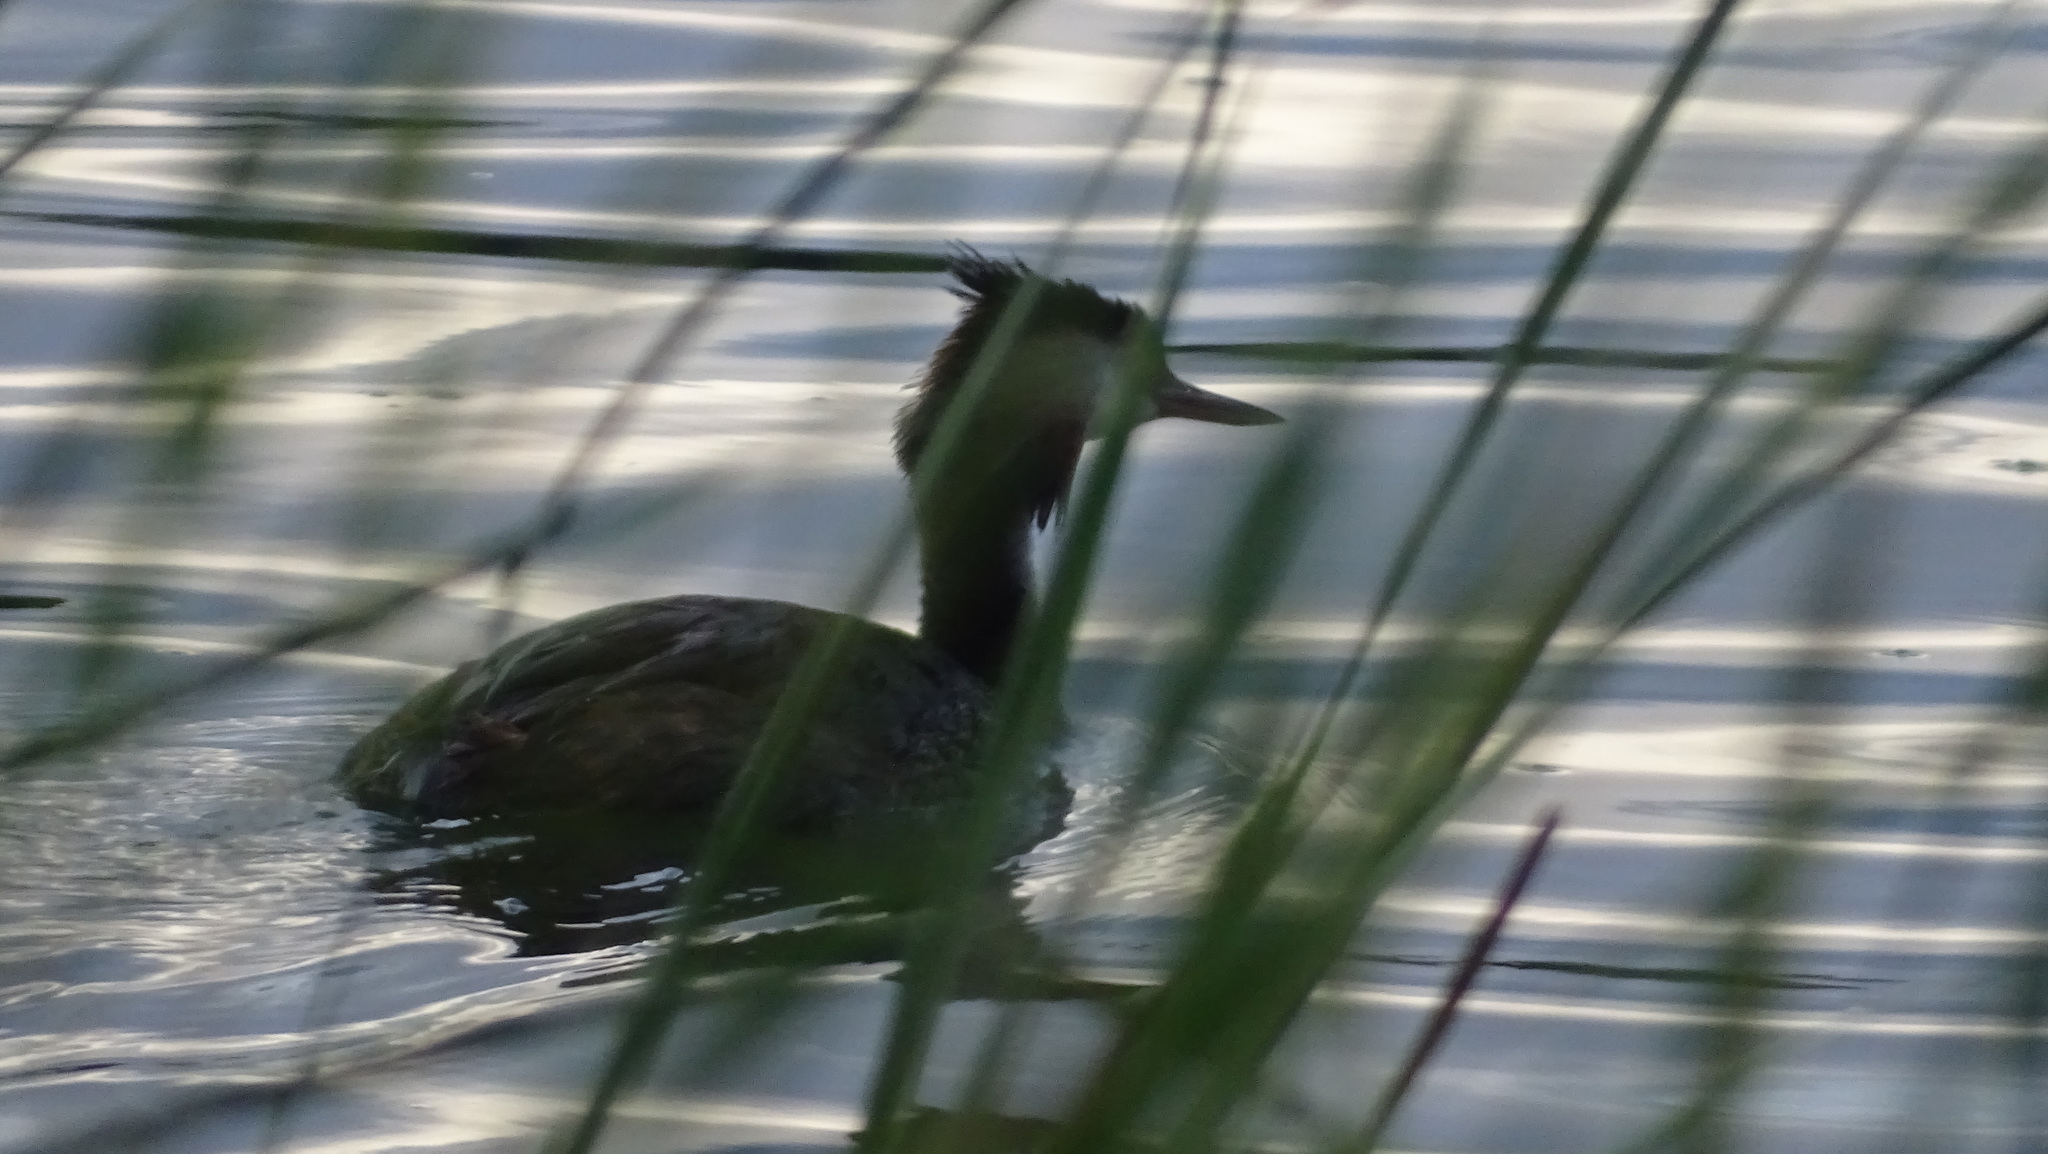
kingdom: Animalia
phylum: Chordata
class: Aves
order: Podicipediformes
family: Podicipedidae
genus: Podiceps
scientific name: Podiceps cristatus
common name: Great crested grebe
